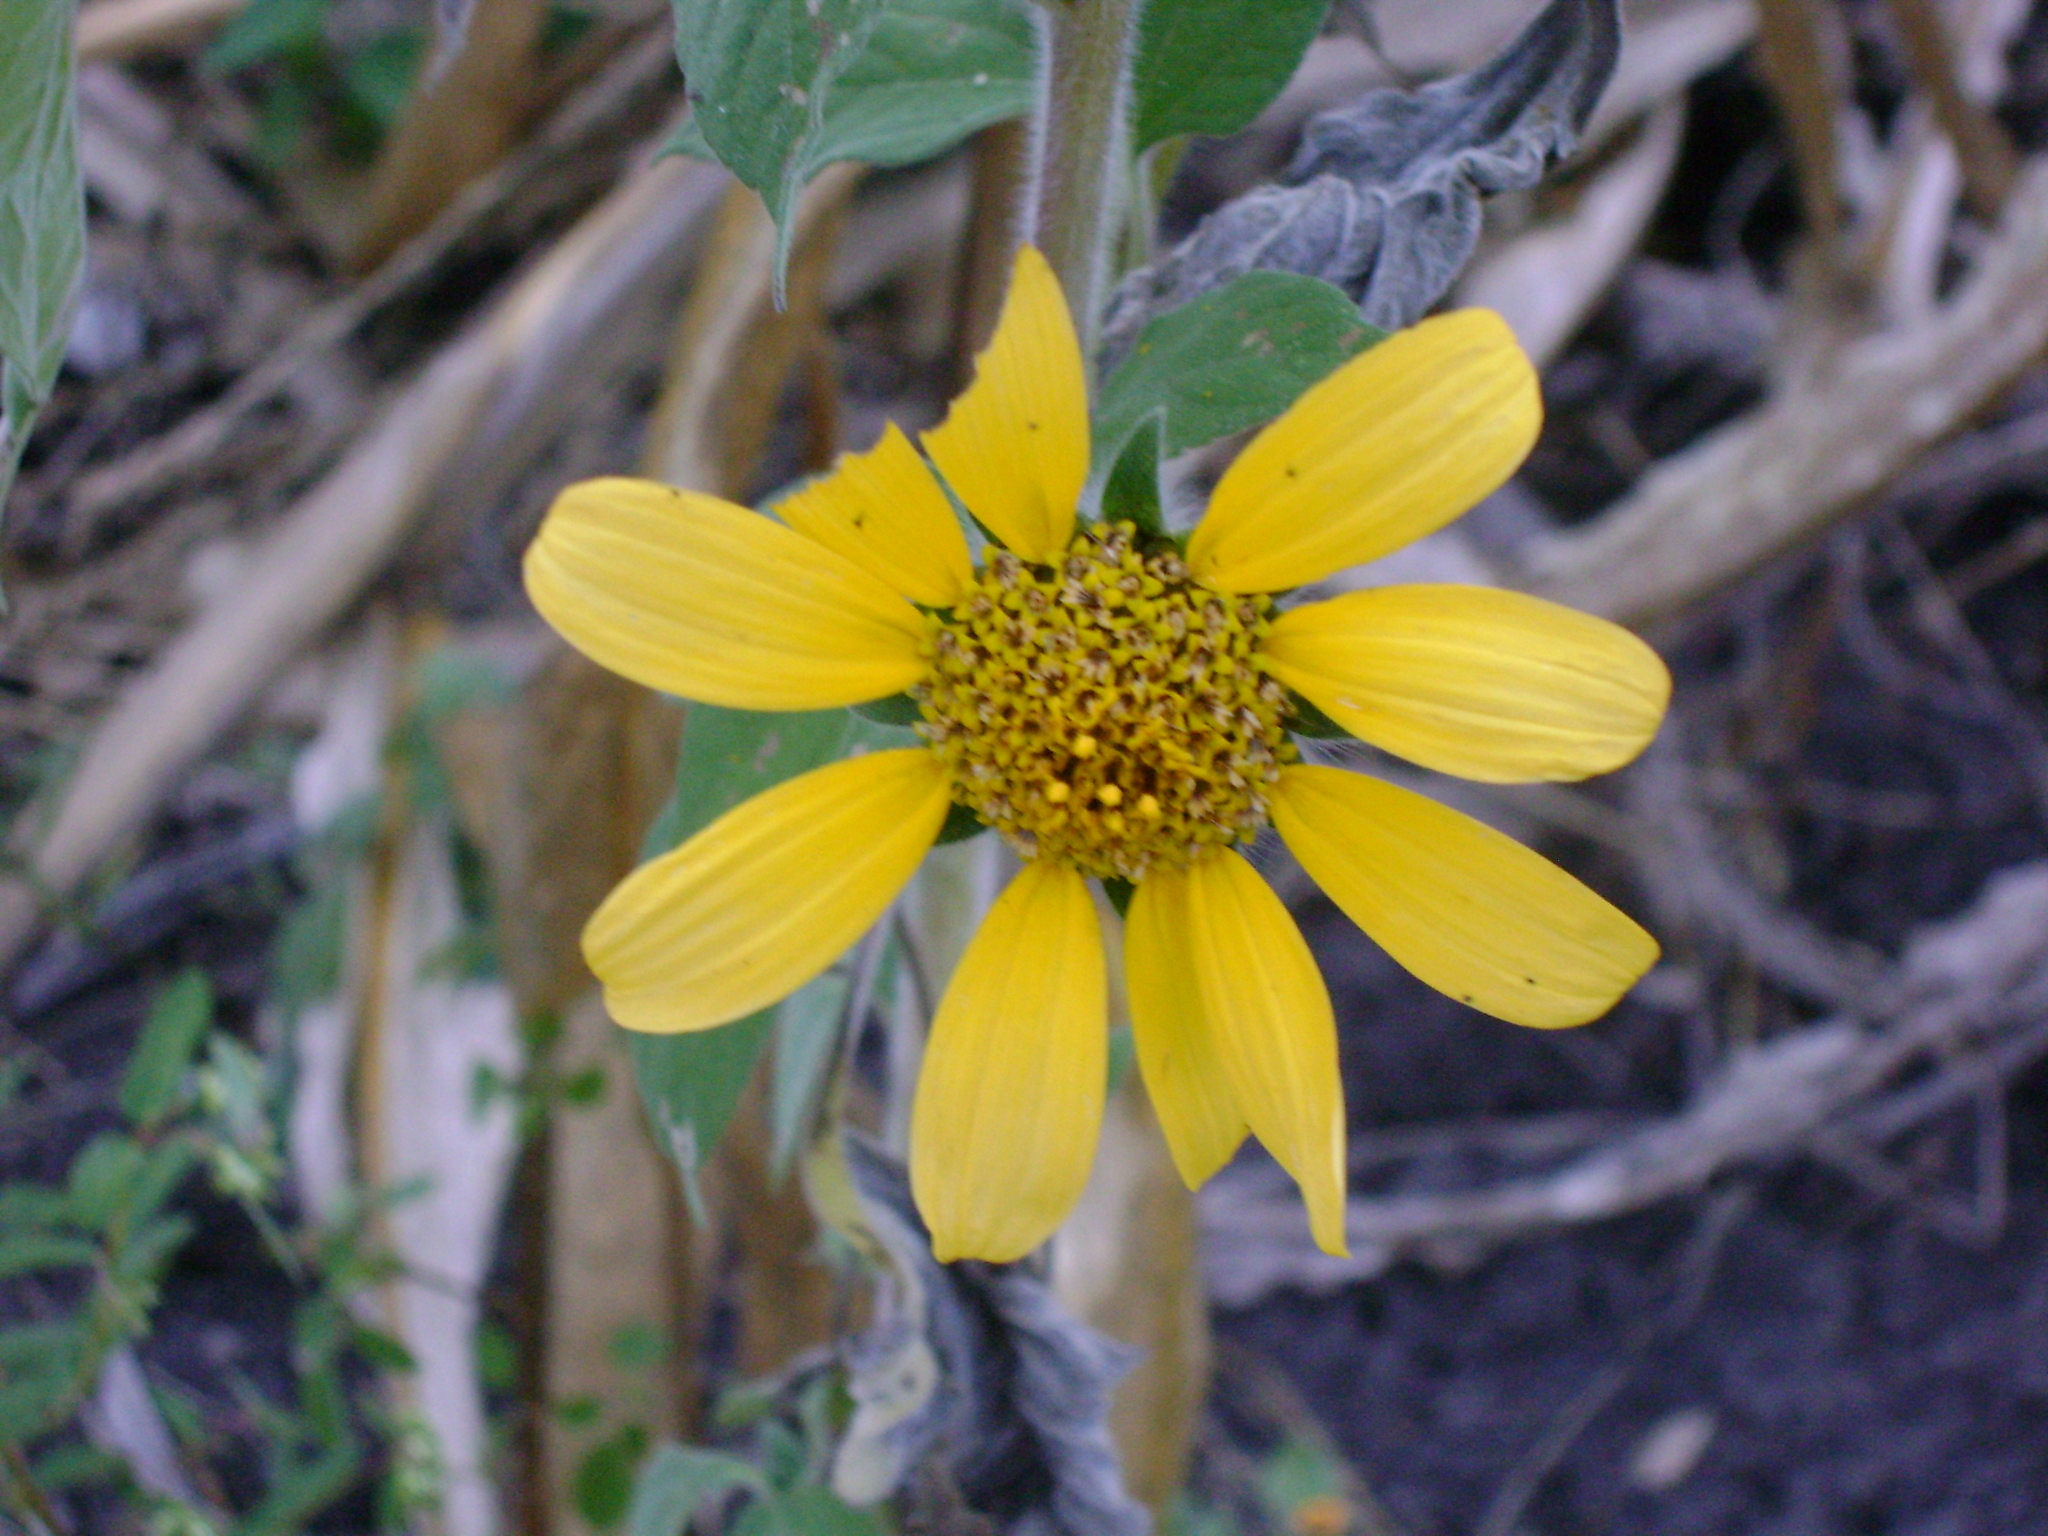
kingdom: Plantae
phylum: Tracheophyta
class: Magnoliopsida
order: Asterales
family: Asteraceae
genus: Tithonia
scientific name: Tithonia tubaeformis
